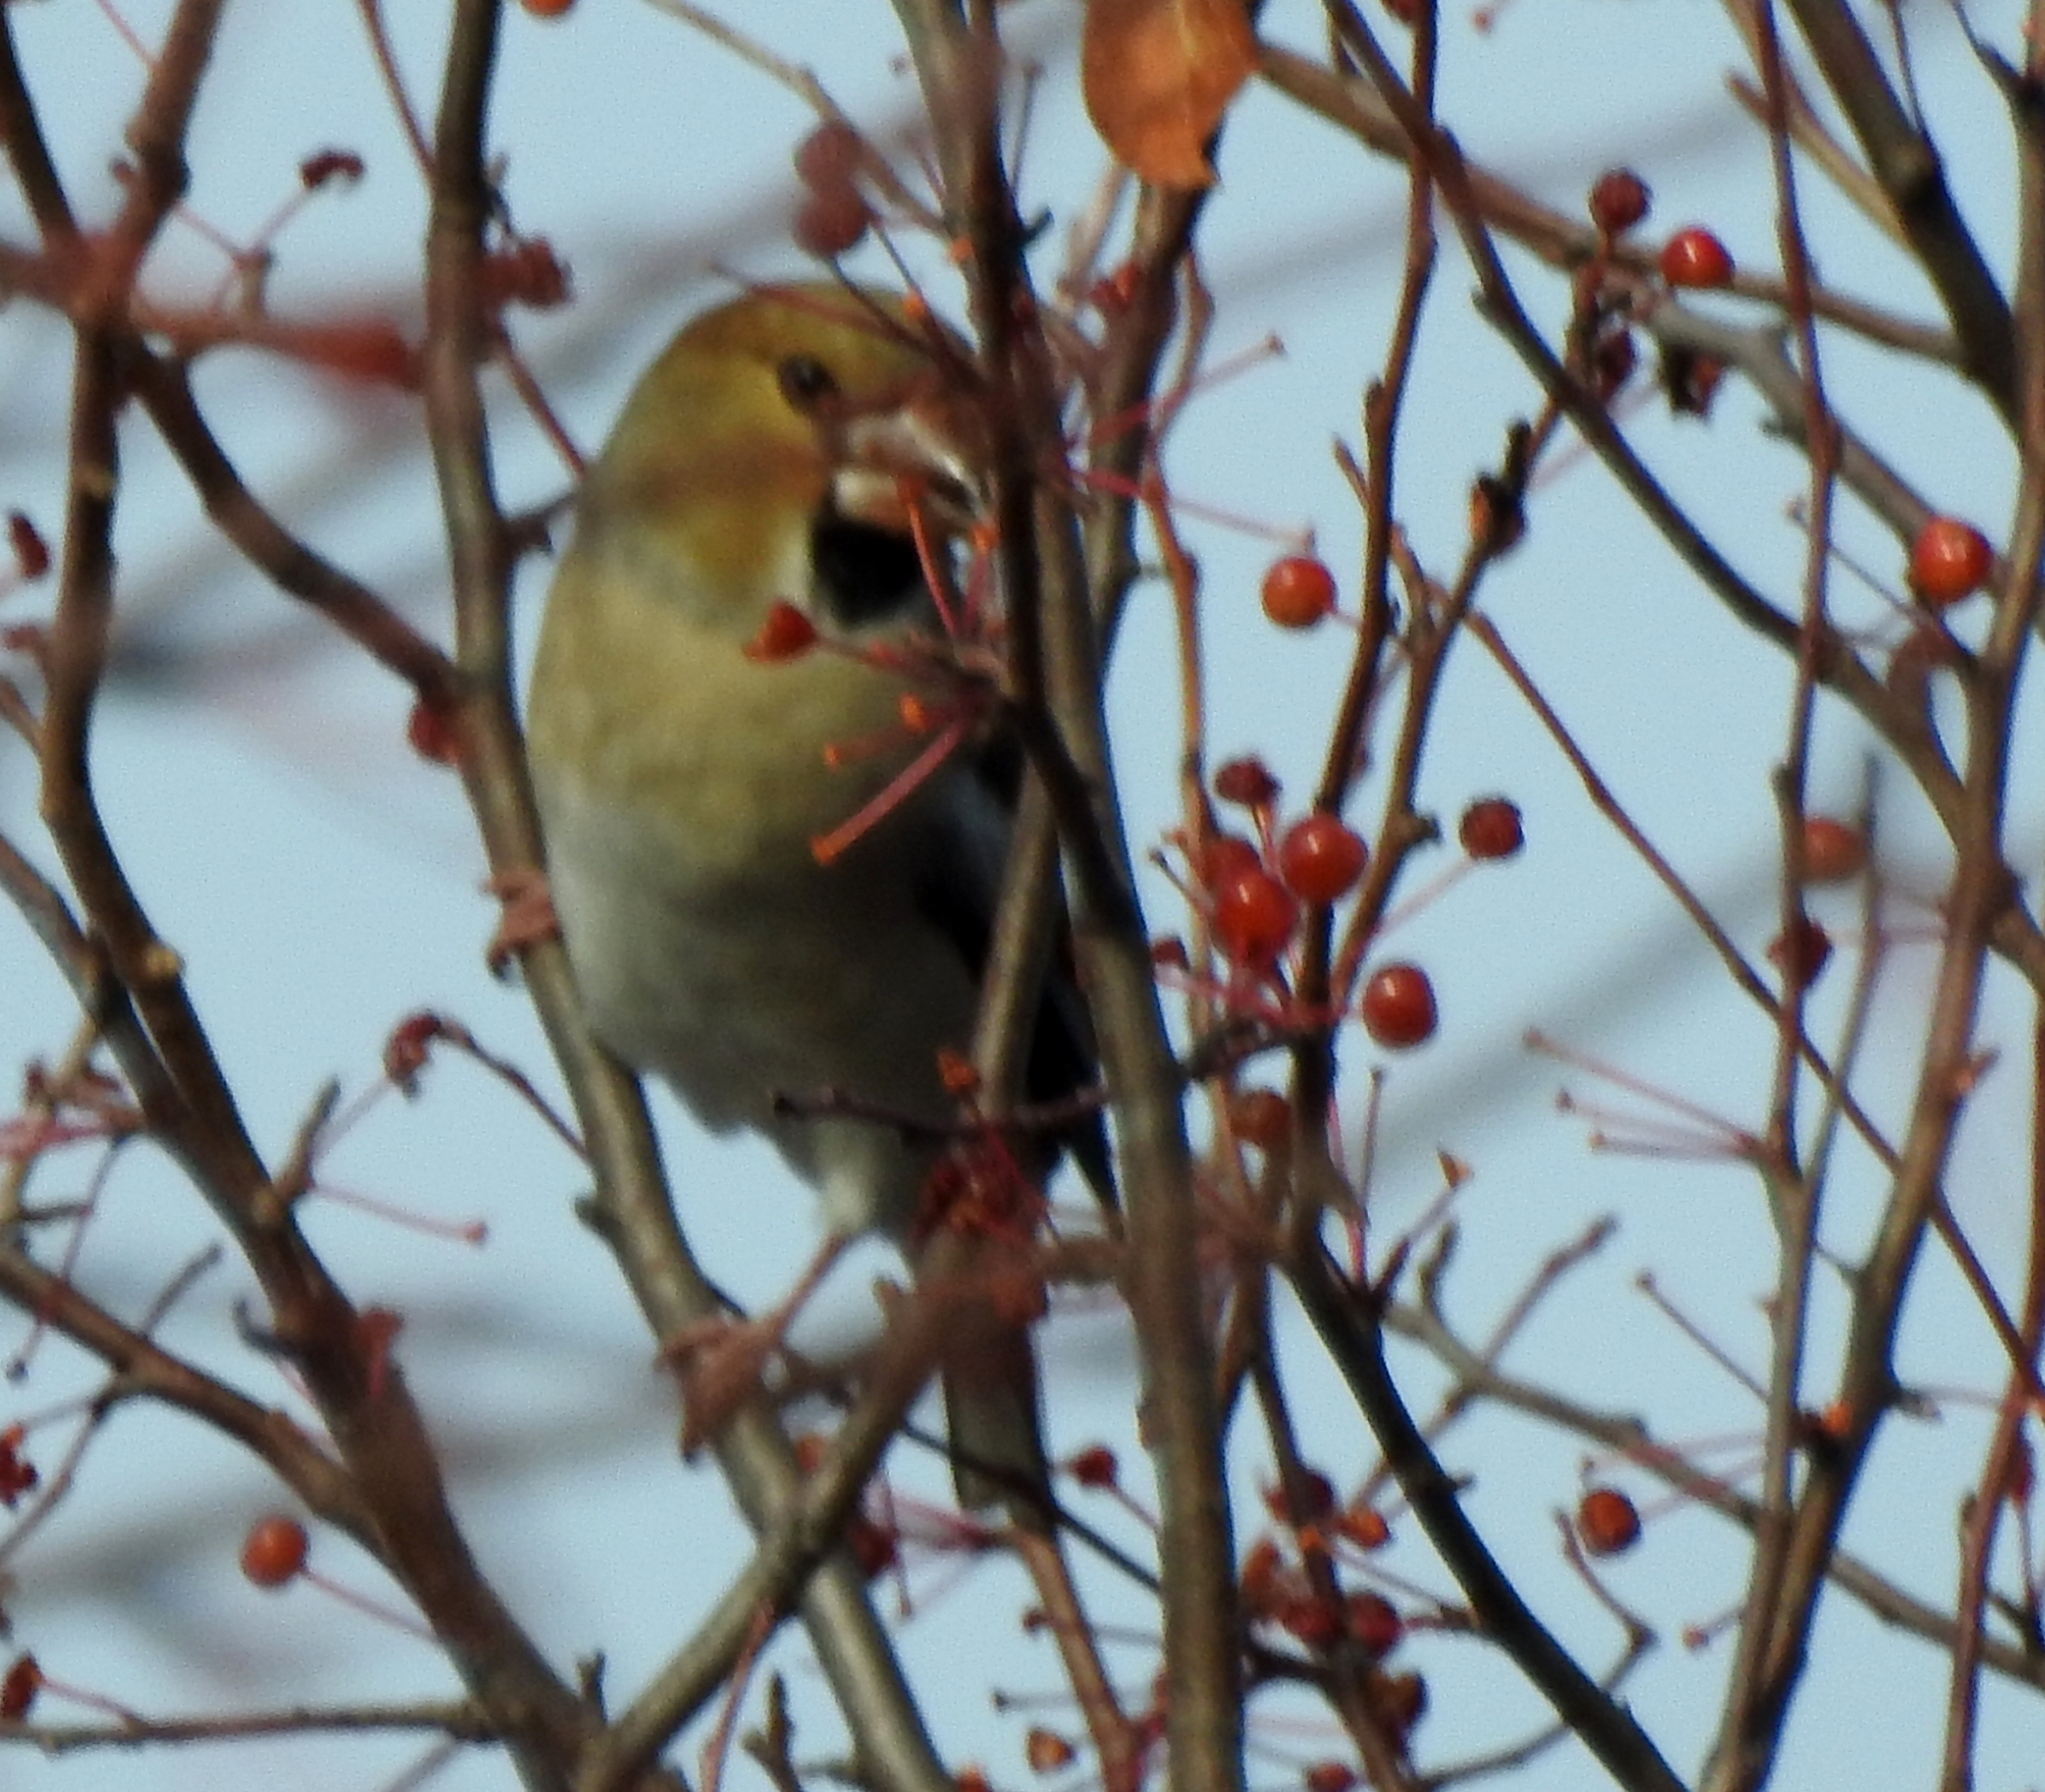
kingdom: Animalia
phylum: Chordata
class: Aves
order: Passeriformes
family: Fringillidae
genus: Coccothraustes
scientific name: Coccothraustes coccothraustes
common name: Hawfinch
